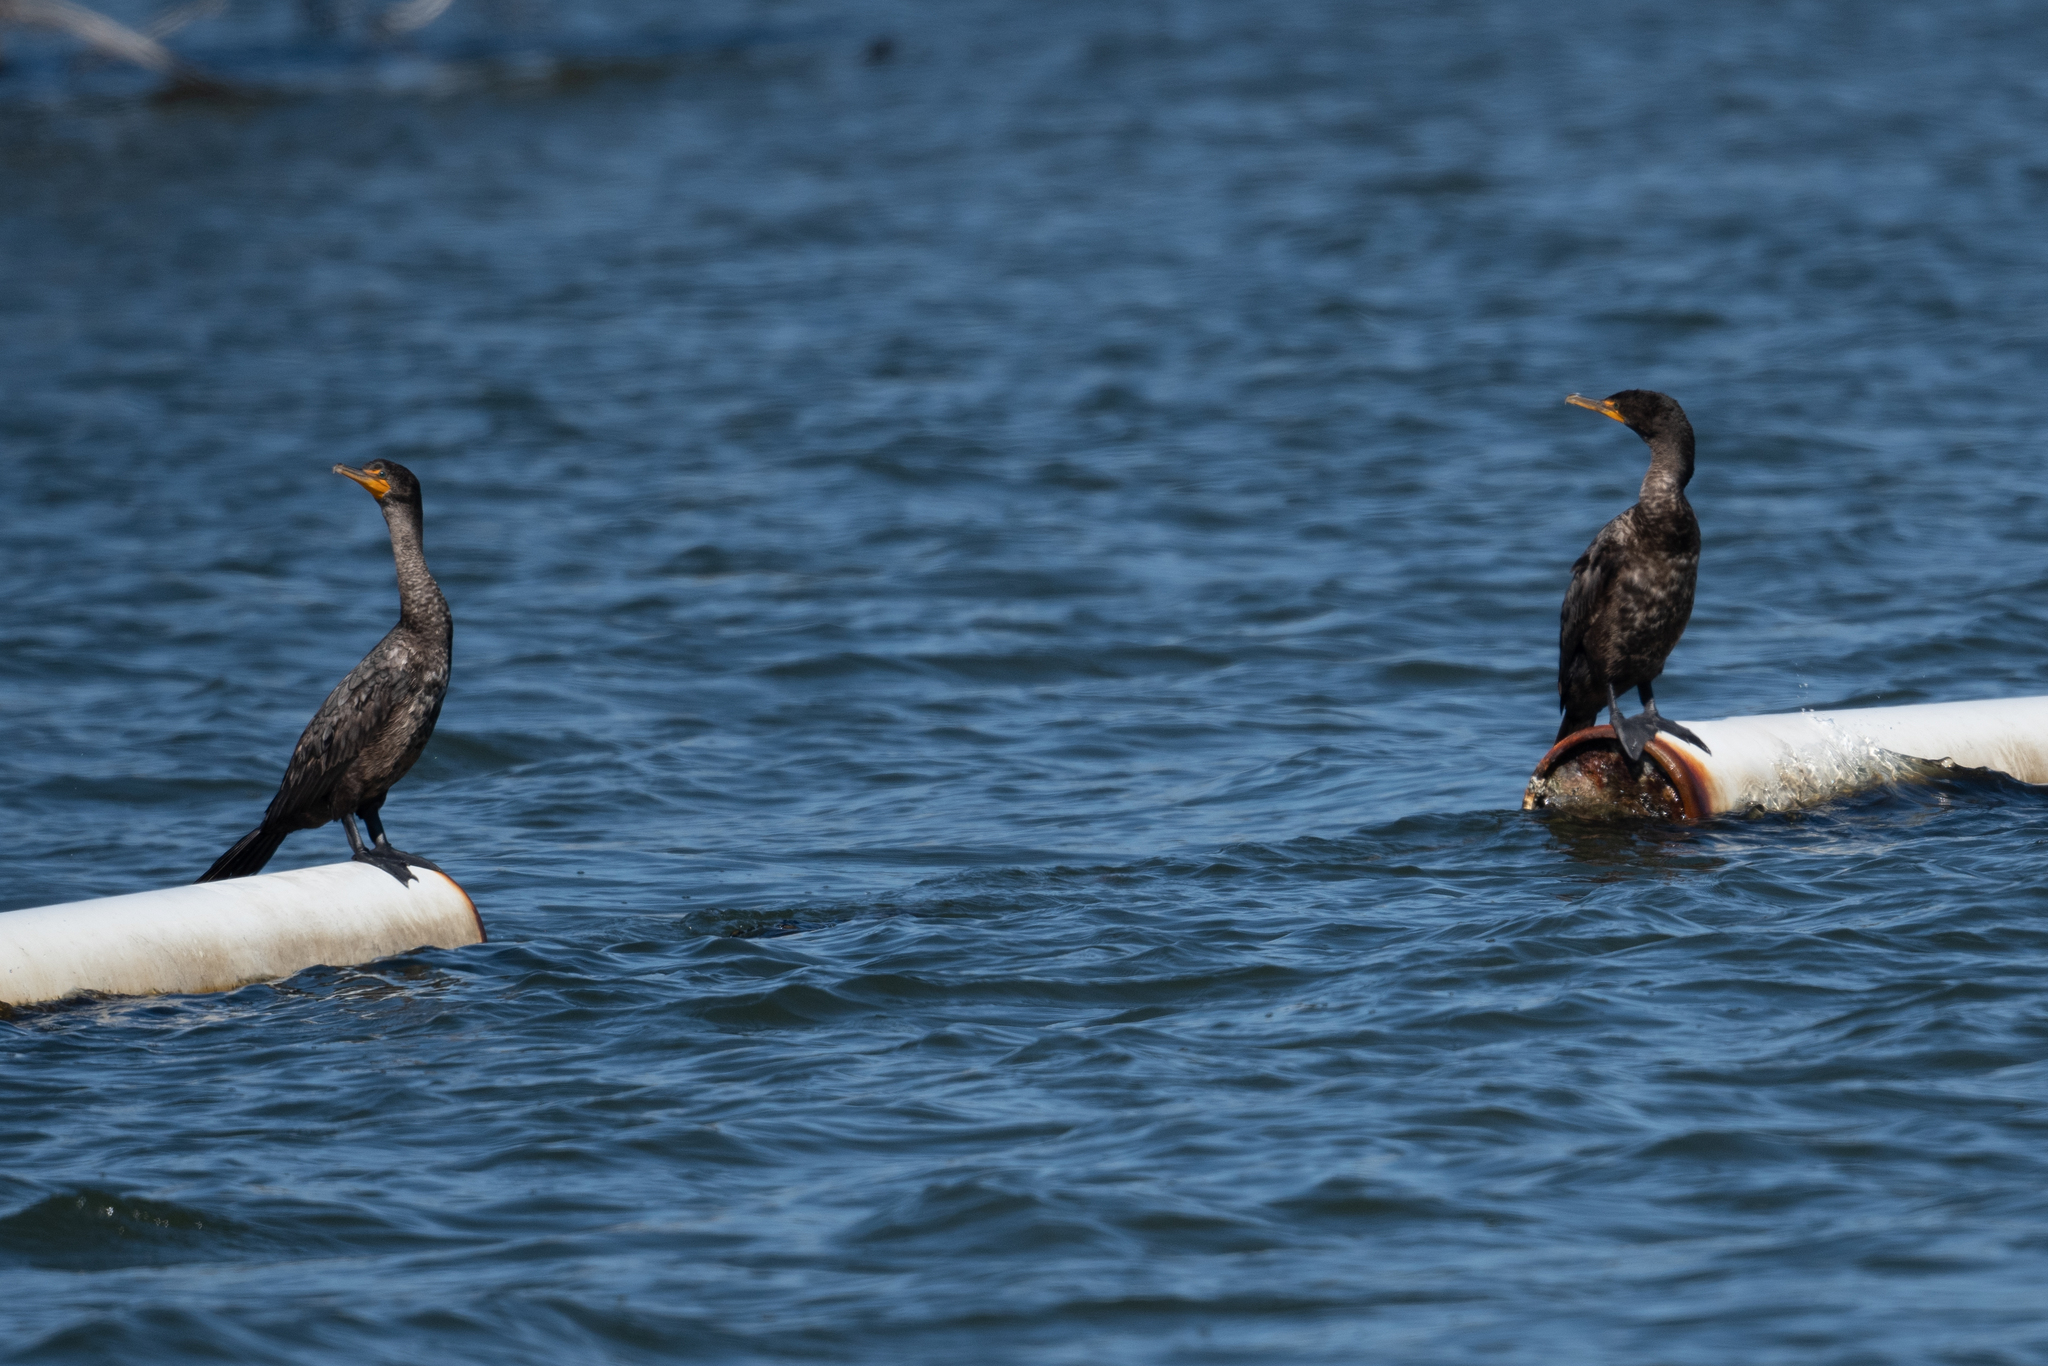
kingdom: Animalia
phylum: Chordata
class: Aves
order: Suliformes
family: Phalacrocoracidae
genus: Phalacrocorax
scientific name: Phalacrocorax auritus
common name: Double-crested cormorant
